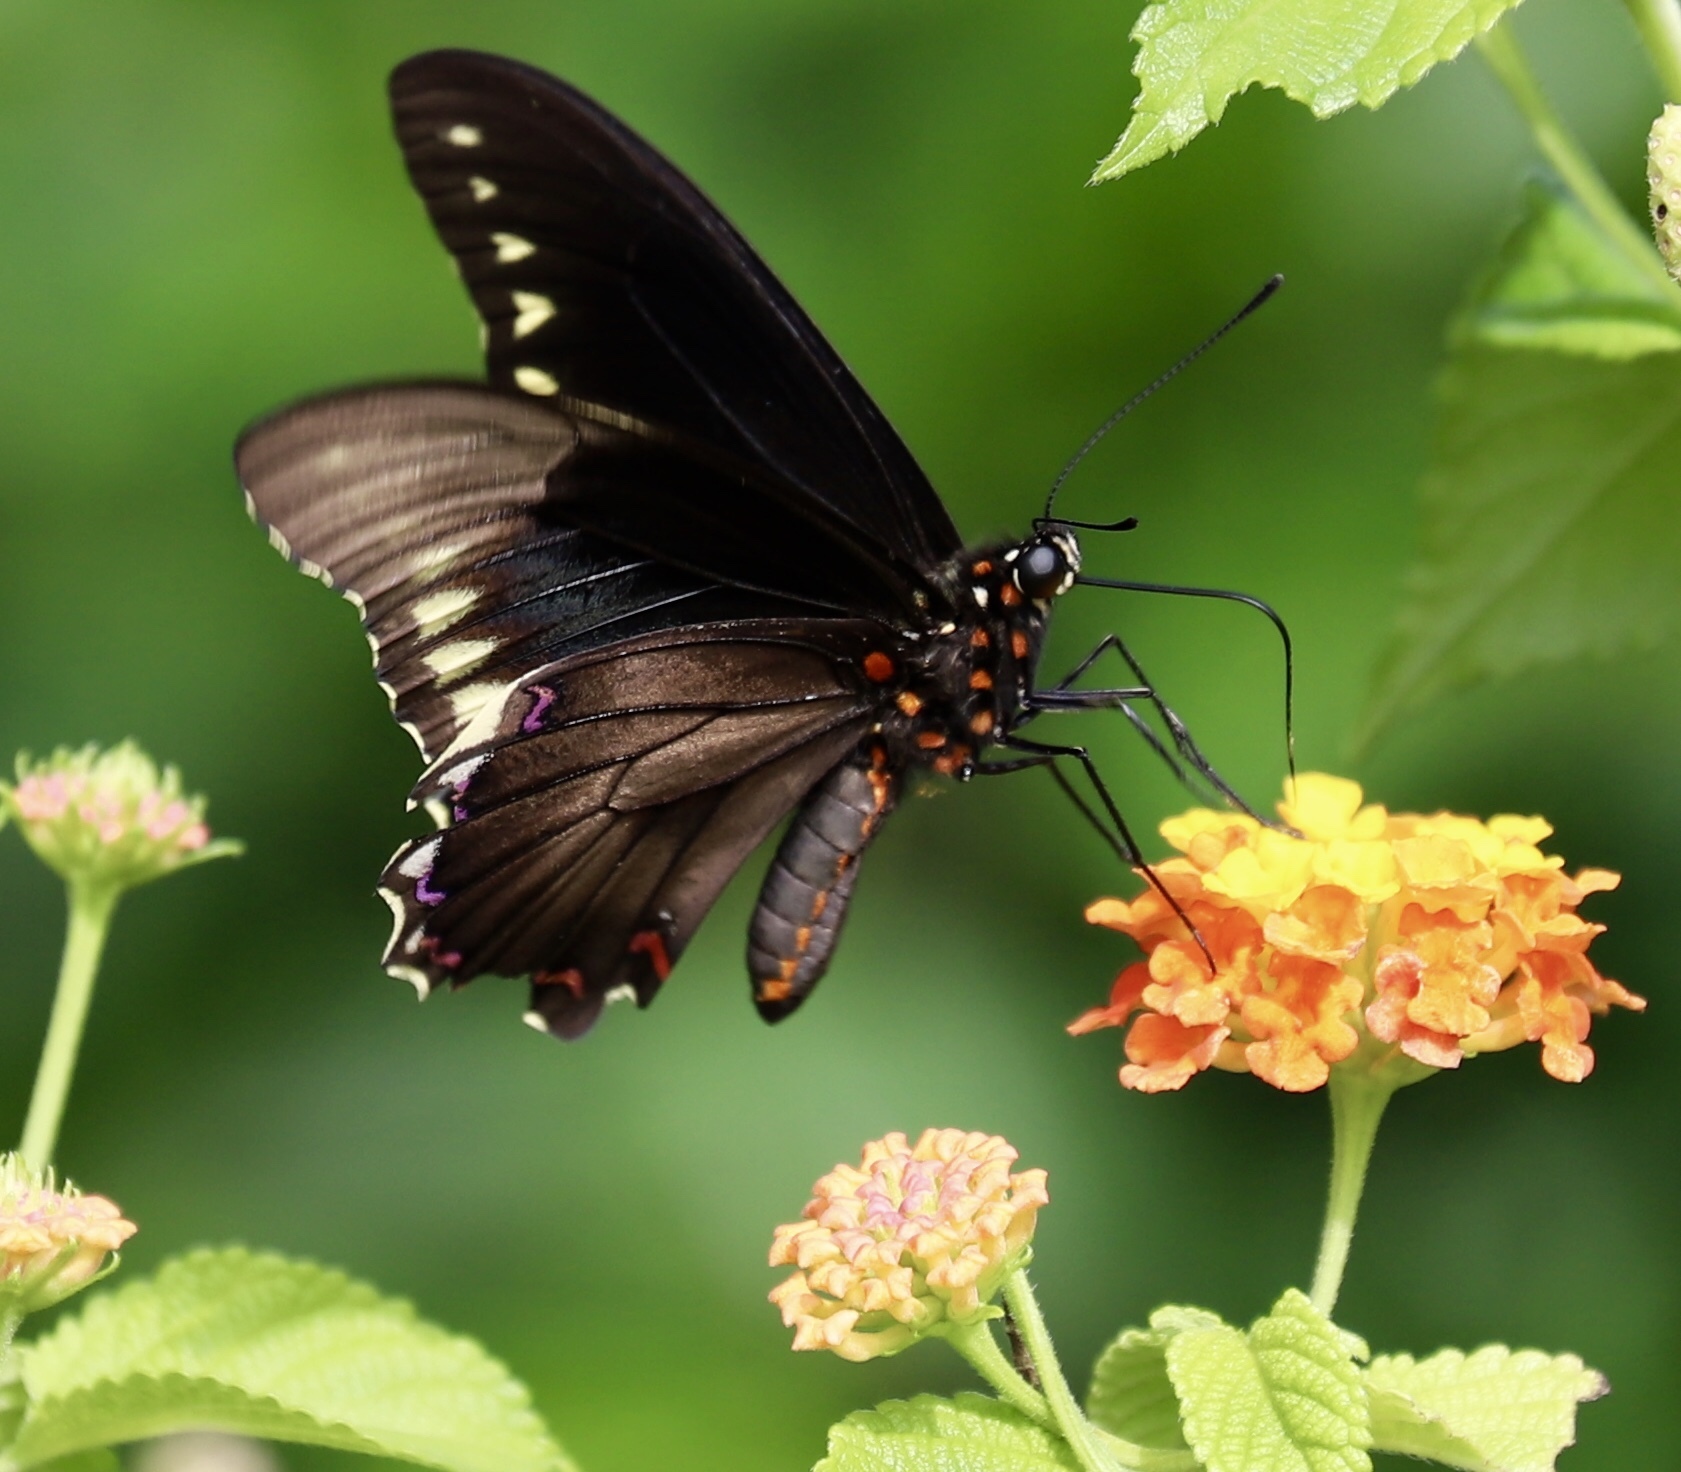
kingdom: Animalia
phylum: Arthropoda
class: Insecta
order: Lepidoptera
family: Papilionidae
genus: Battus
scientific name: Battus polydamas
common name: Polydamas swallowtail
